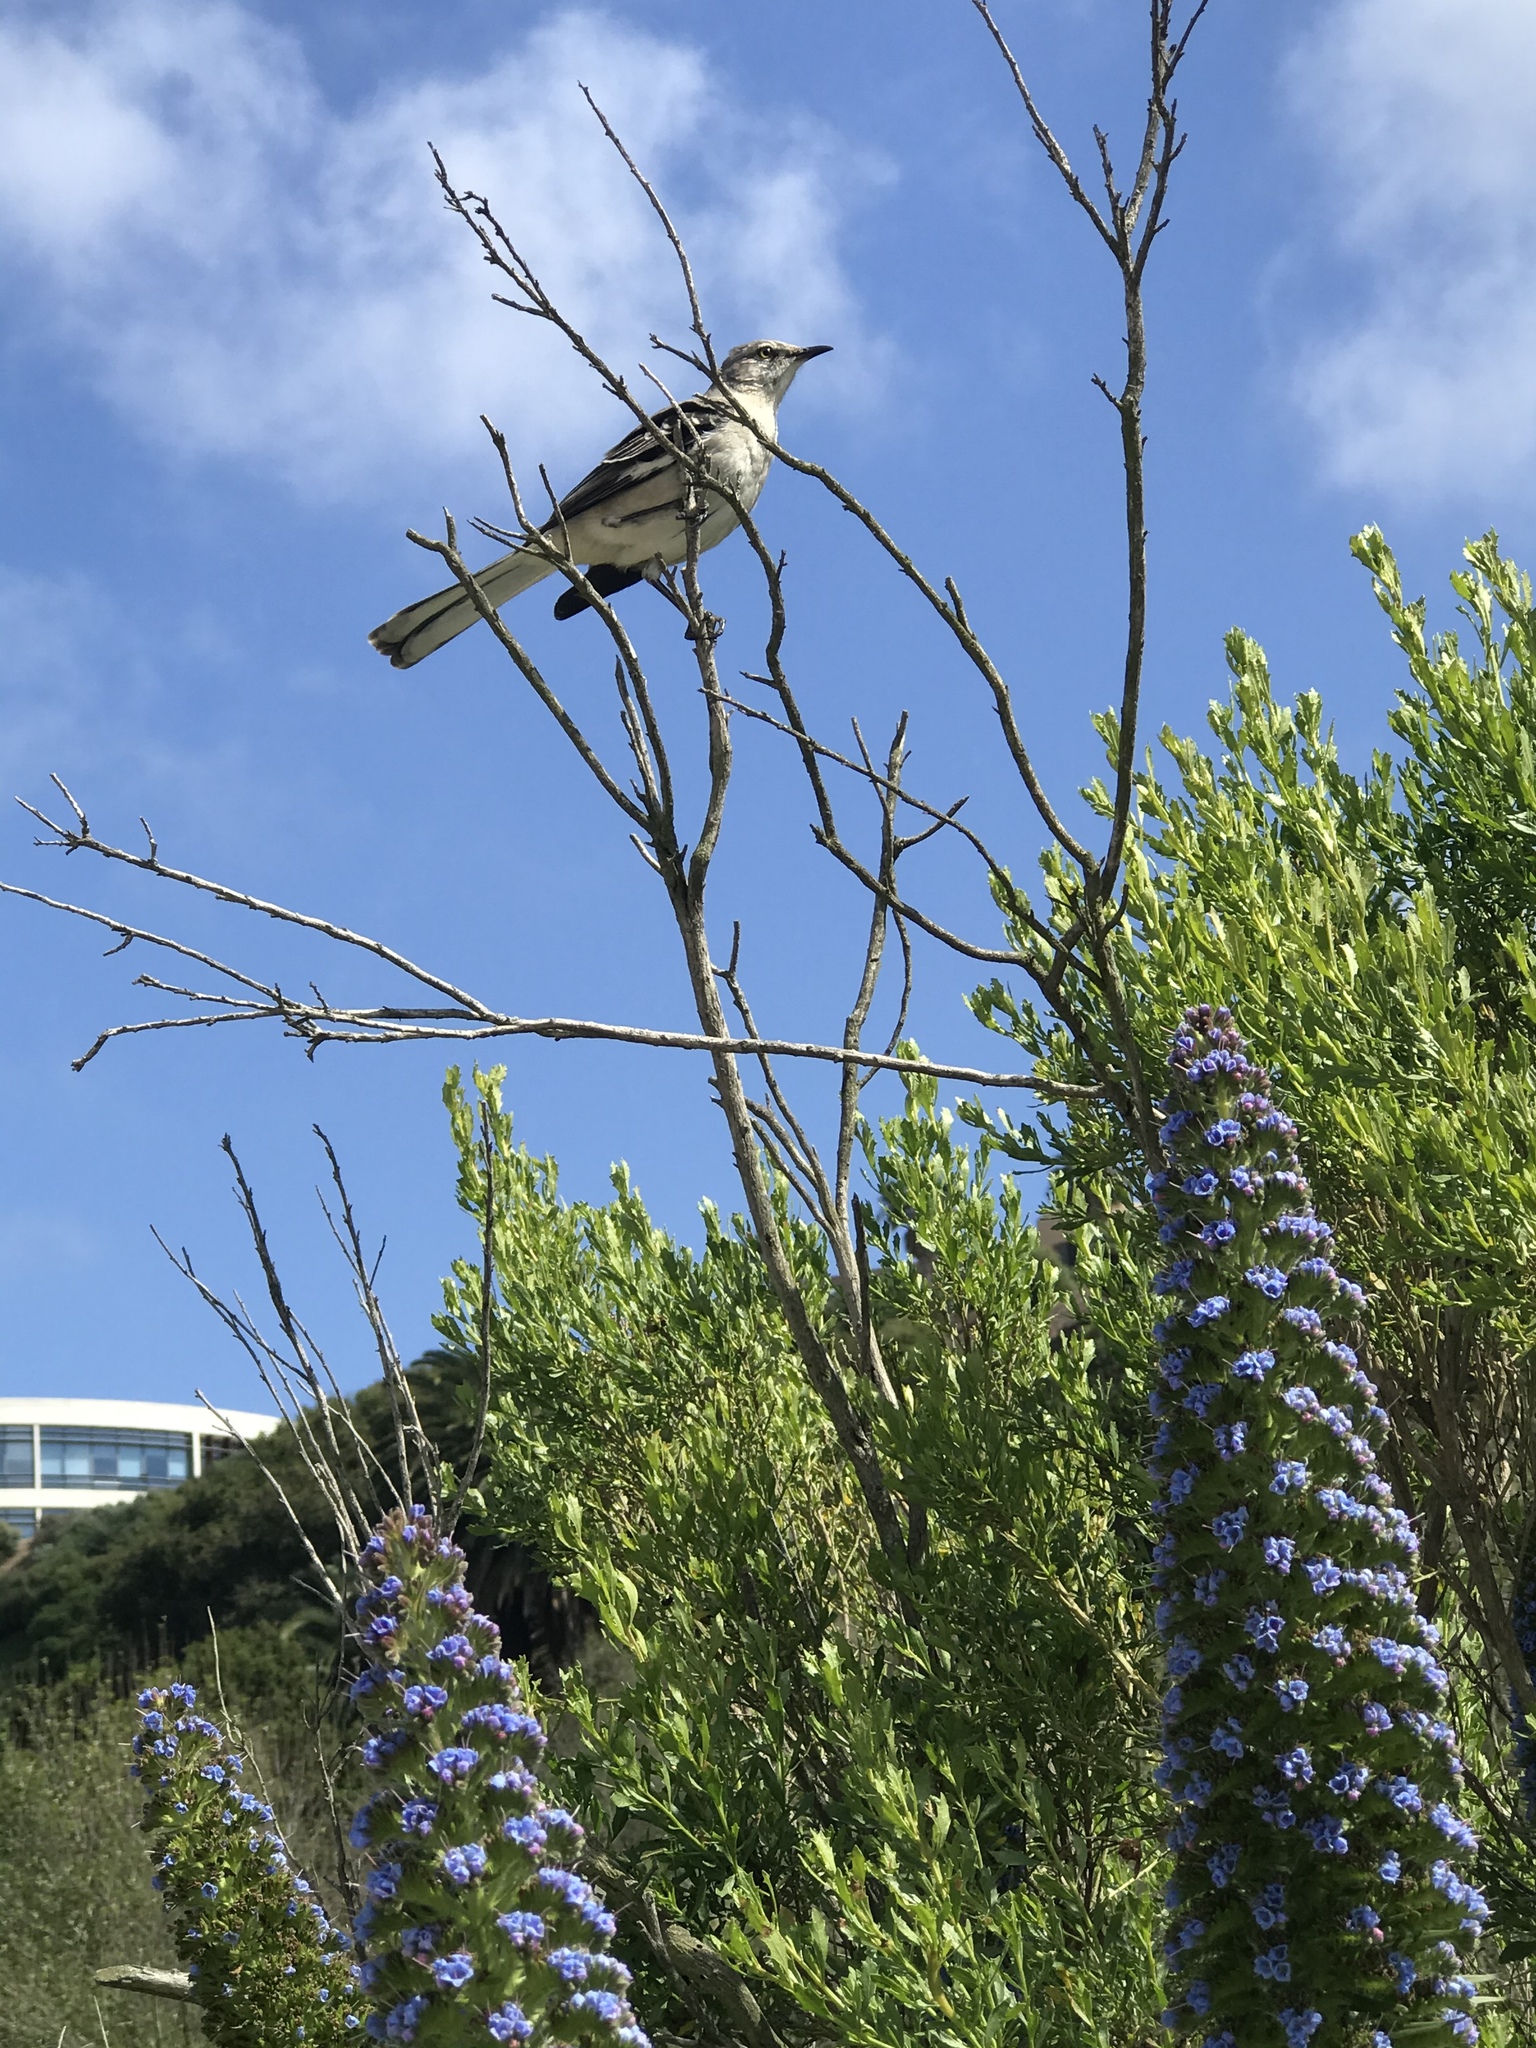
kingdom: Animalia
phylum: Chordata
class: Aves
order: Passeriformes
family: Mimidae
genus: Mimus
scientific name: Mimus polyglottos
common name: Northern mockingbird
